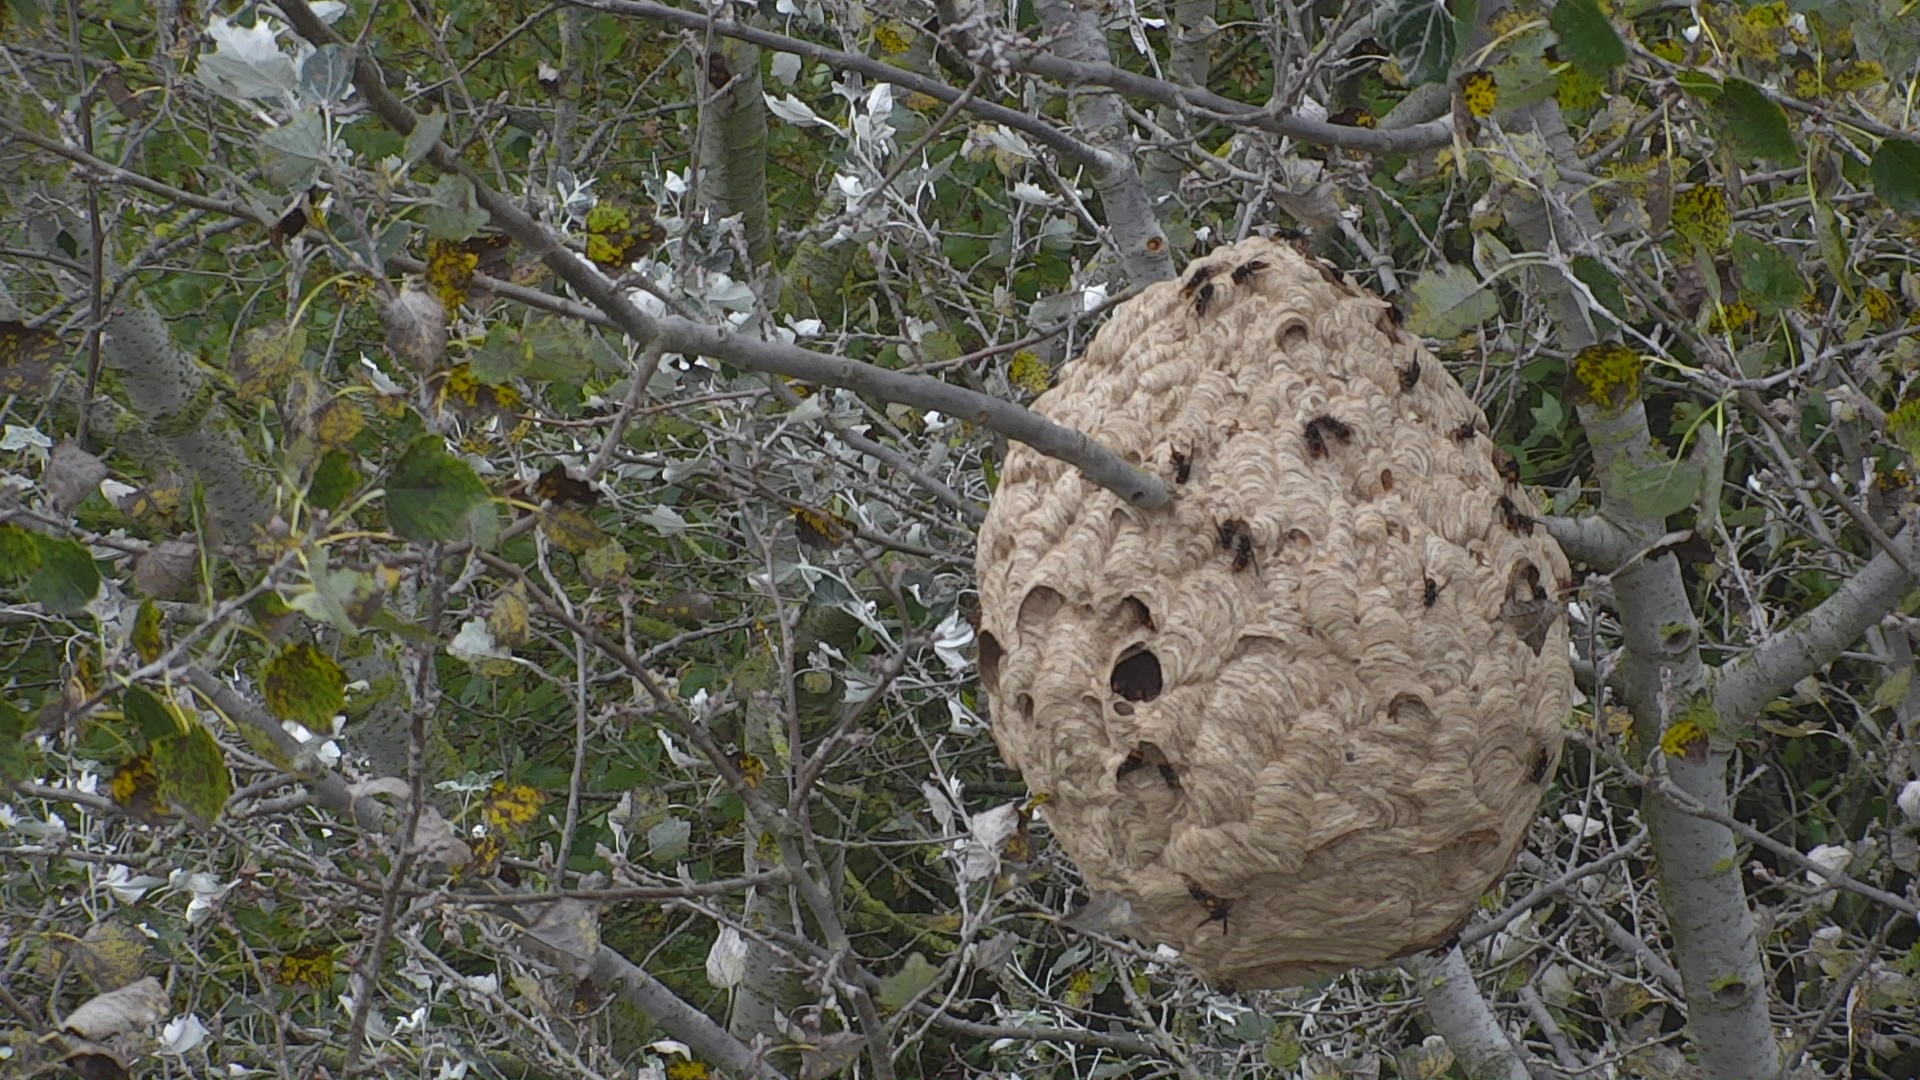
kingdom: Animalia
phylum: Arthropoda
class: Insecta
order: Hymenoptera
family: Vespidae
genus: Vespa
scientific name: Vespa velutina
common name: Asian hornet
